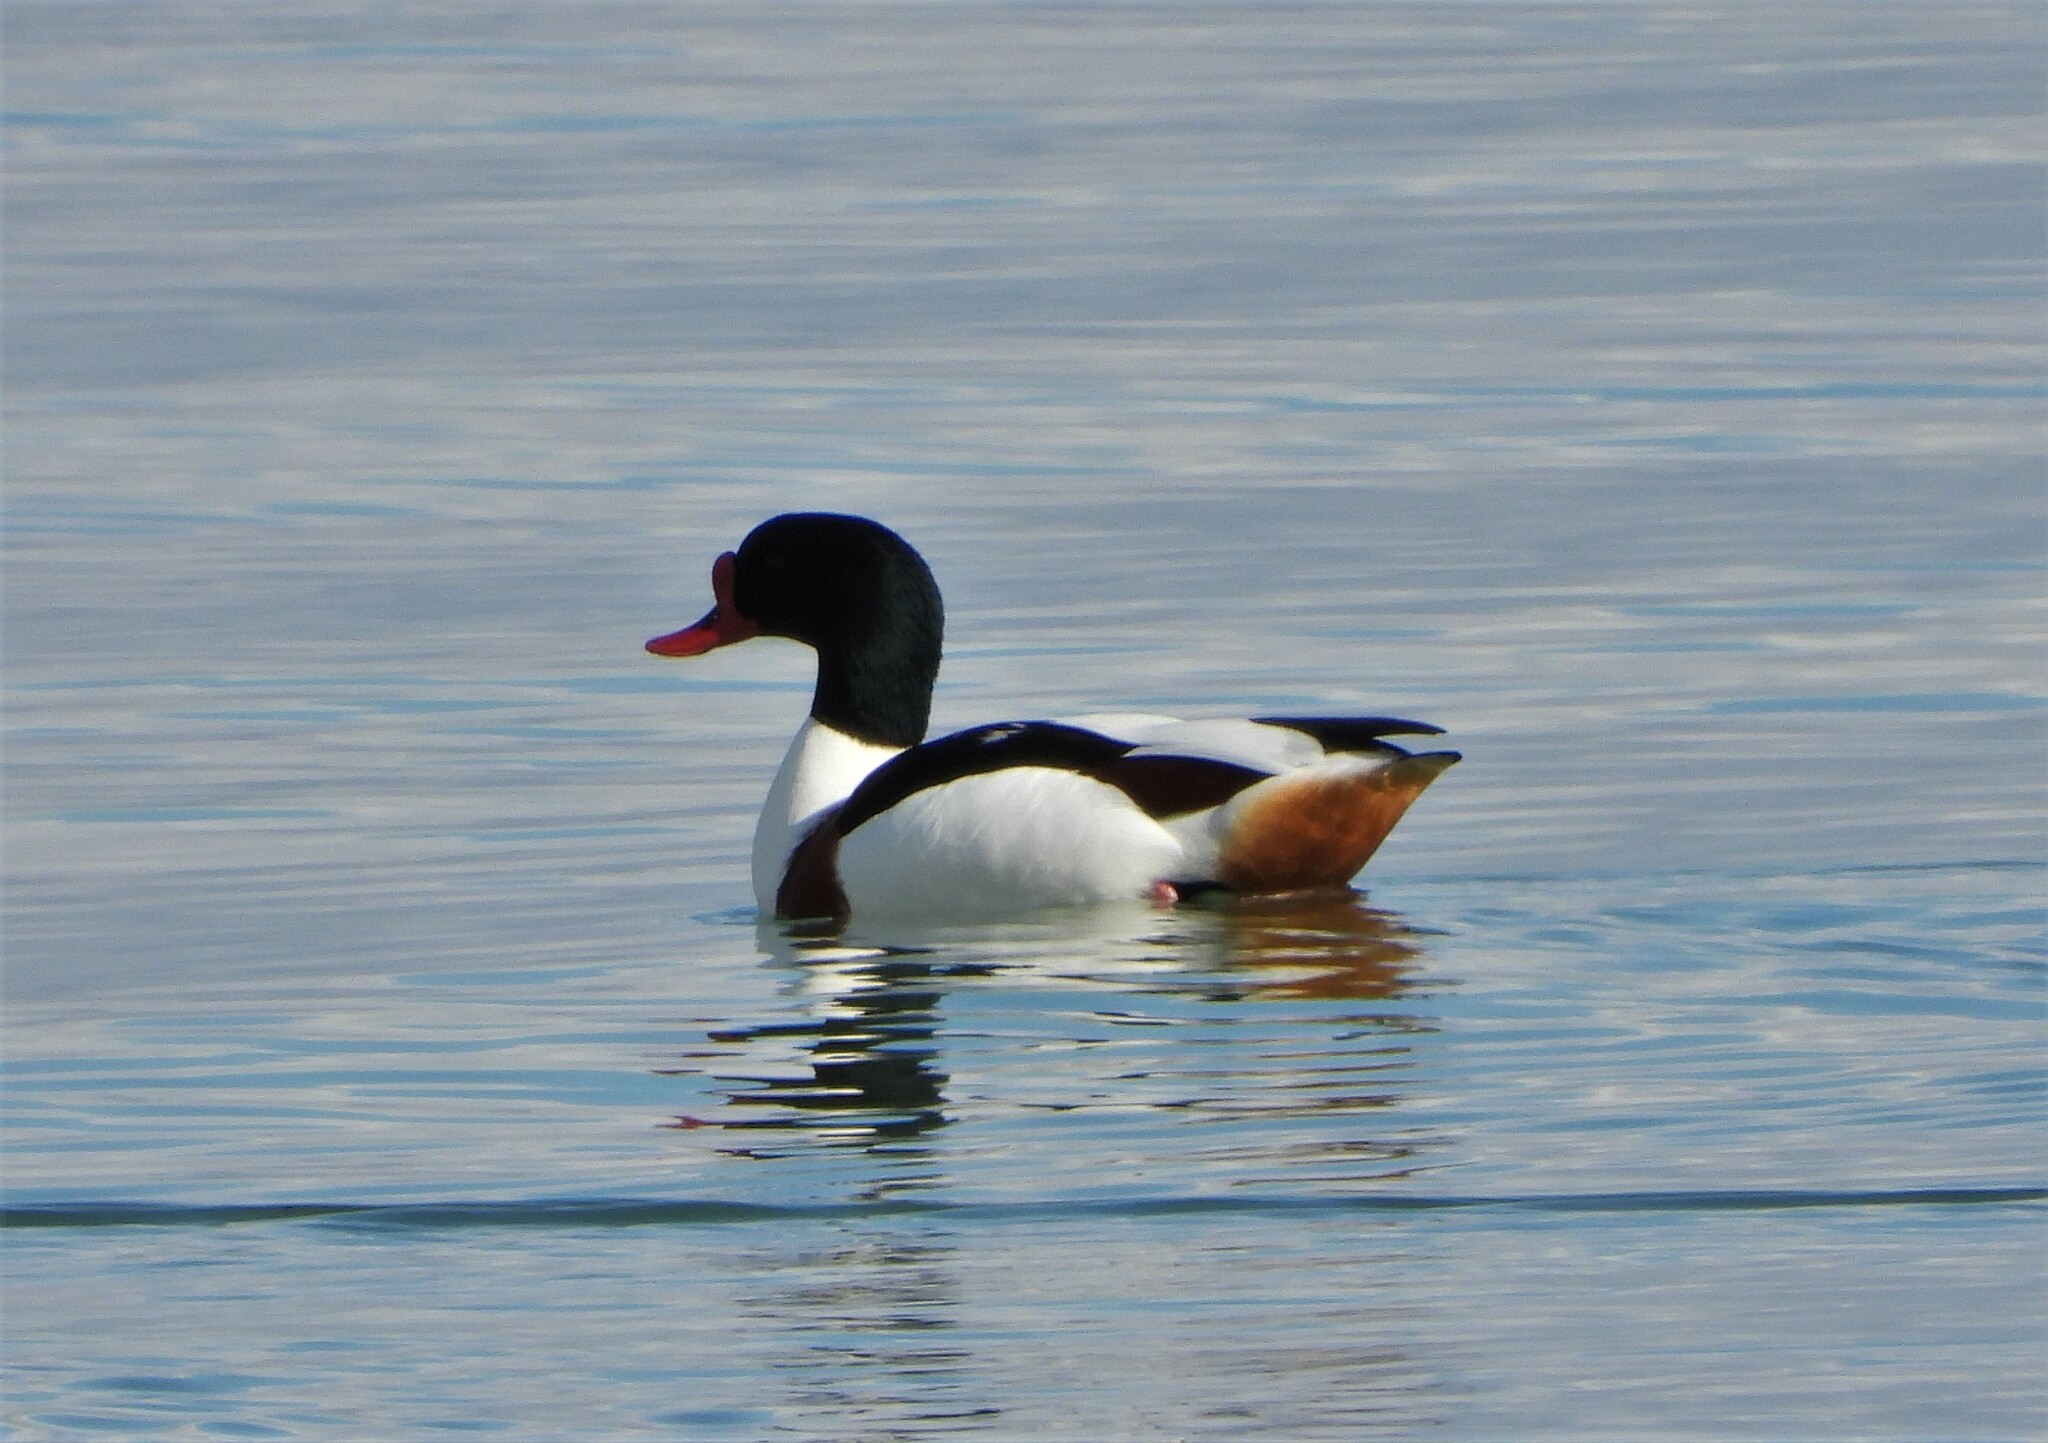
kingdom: Animalia
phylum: Chordata
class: Aves
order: Anseriformes
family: Anatidae
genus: Tadorna
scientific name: Tadorna tadorna
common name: Common shelduck
